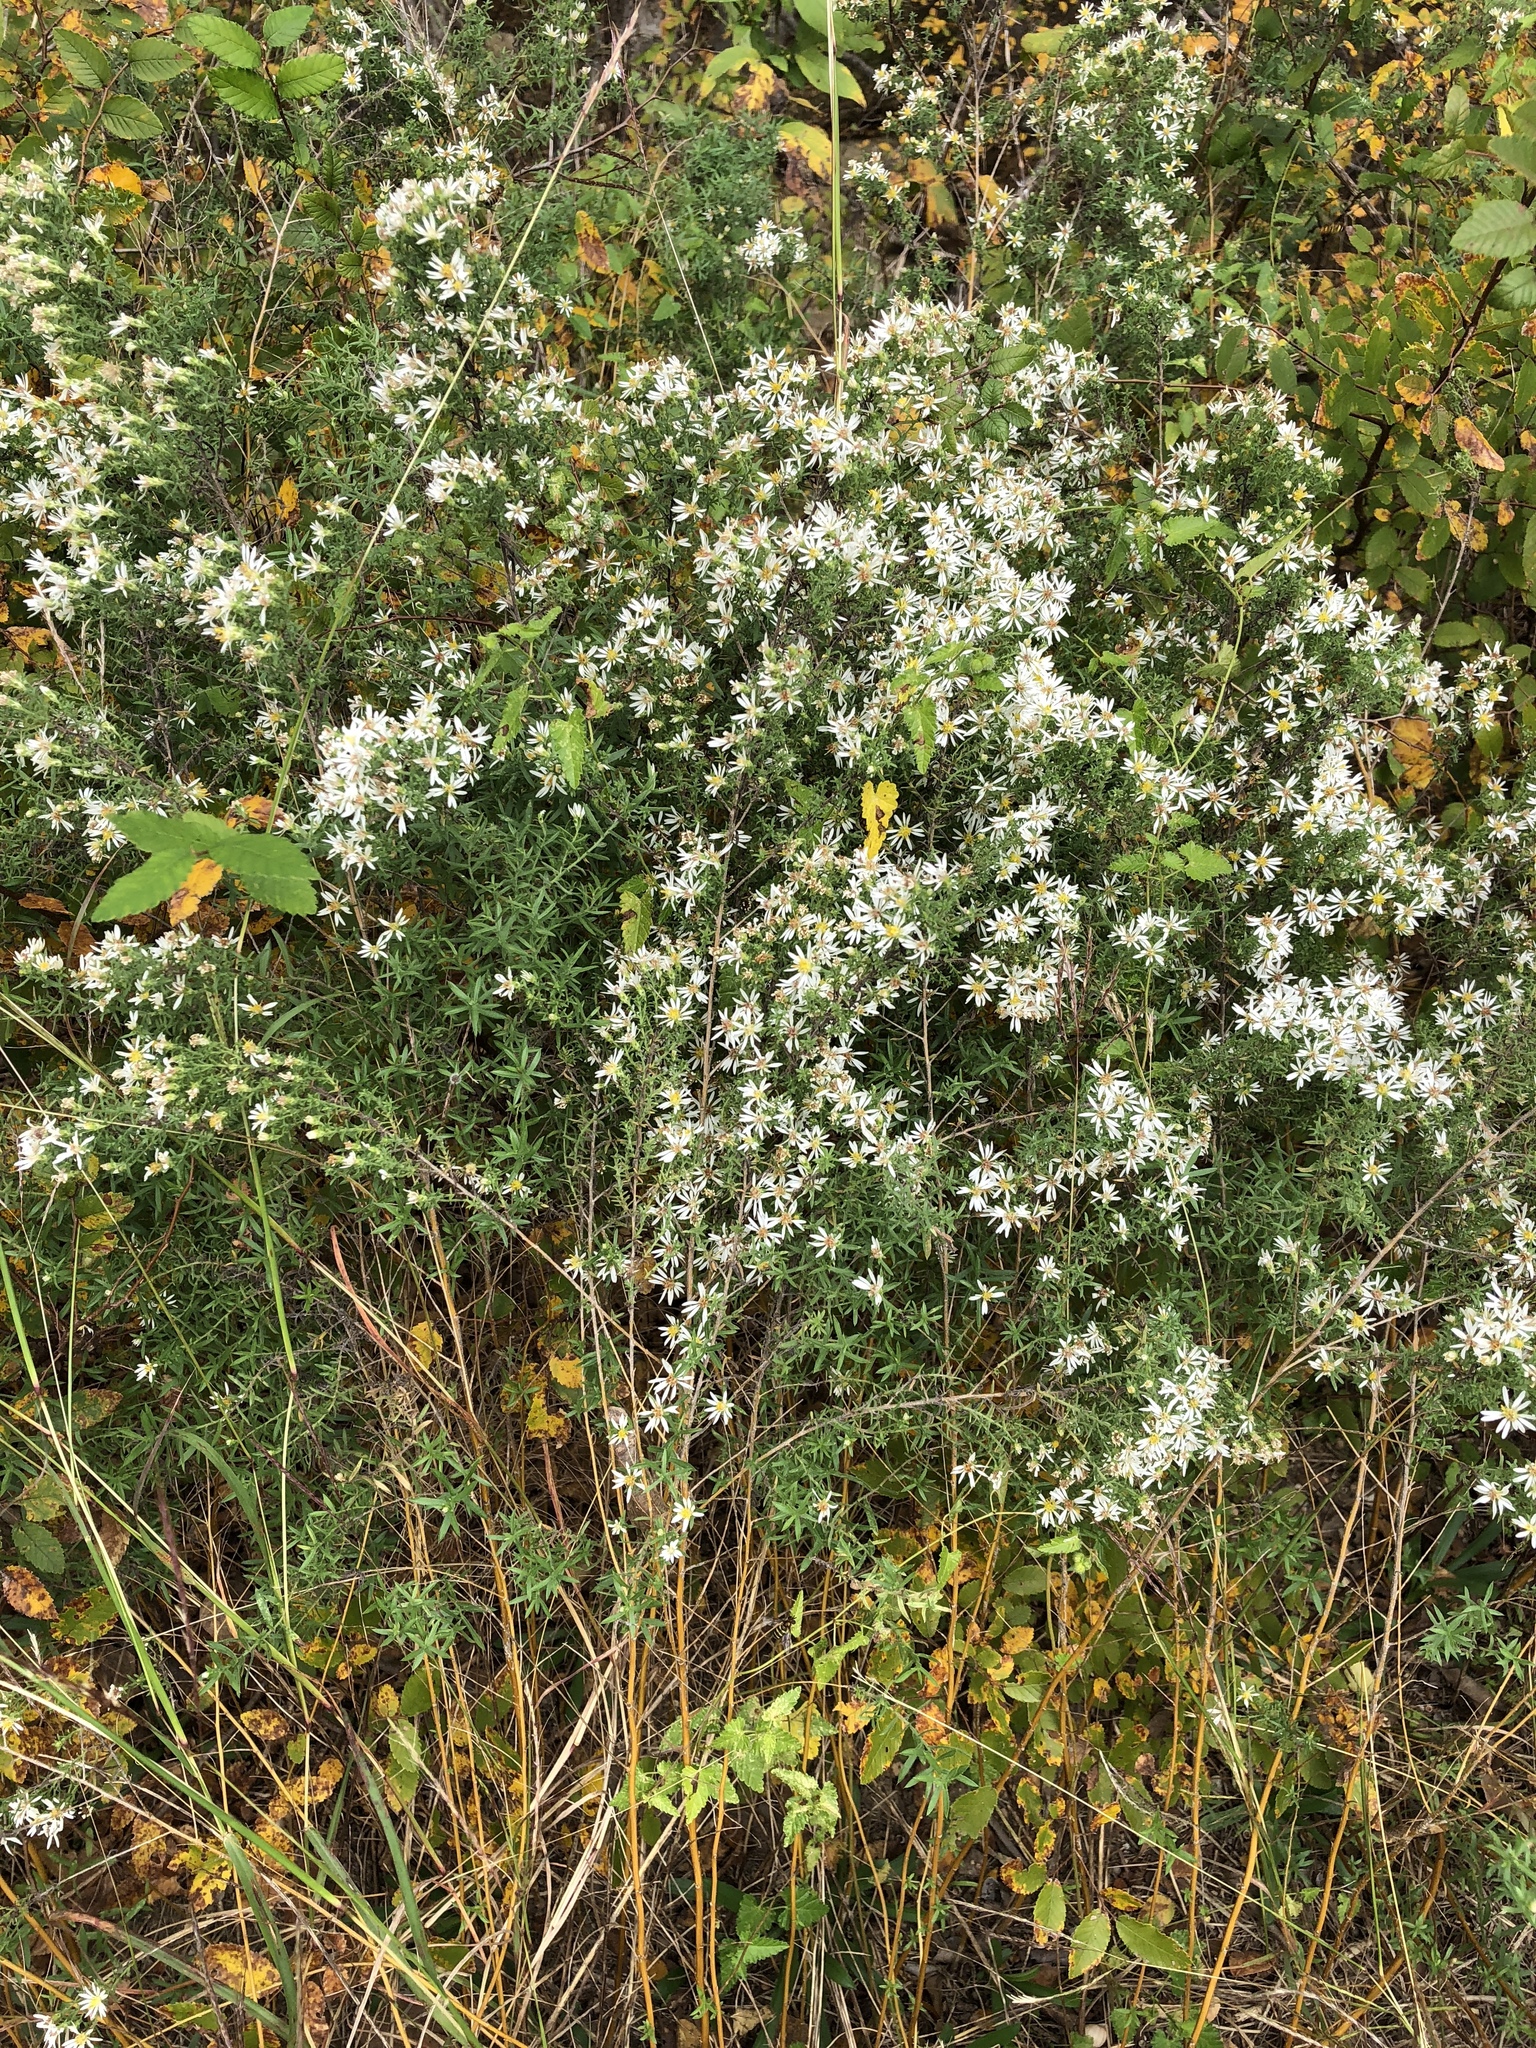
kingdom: Plantae
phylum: Tracheophyta
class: Magnoliopsida
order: Asterales
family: Asteraceae
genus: Symphyotrichum
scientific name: Symphyotrichum ericoides
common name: Heath aster
